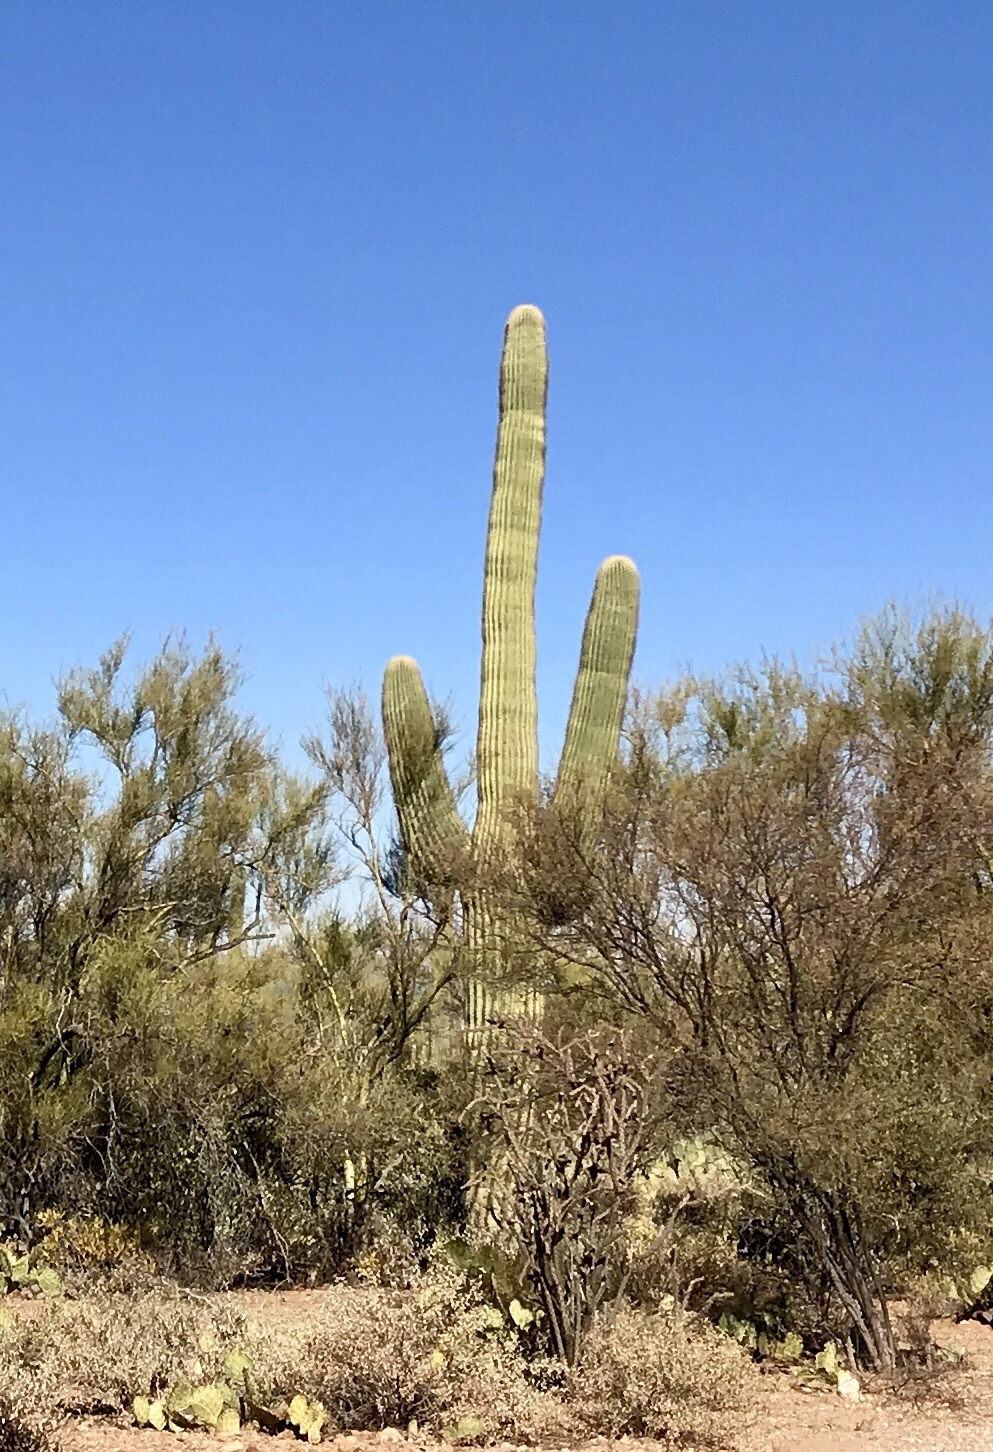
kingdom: Plantae
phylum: Tracheophyta
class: Magnoliopsida
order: Caryophyllales
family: Cactaceae
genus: Carnegiea
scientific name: Carnegiea gigantea
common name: Saguaro
